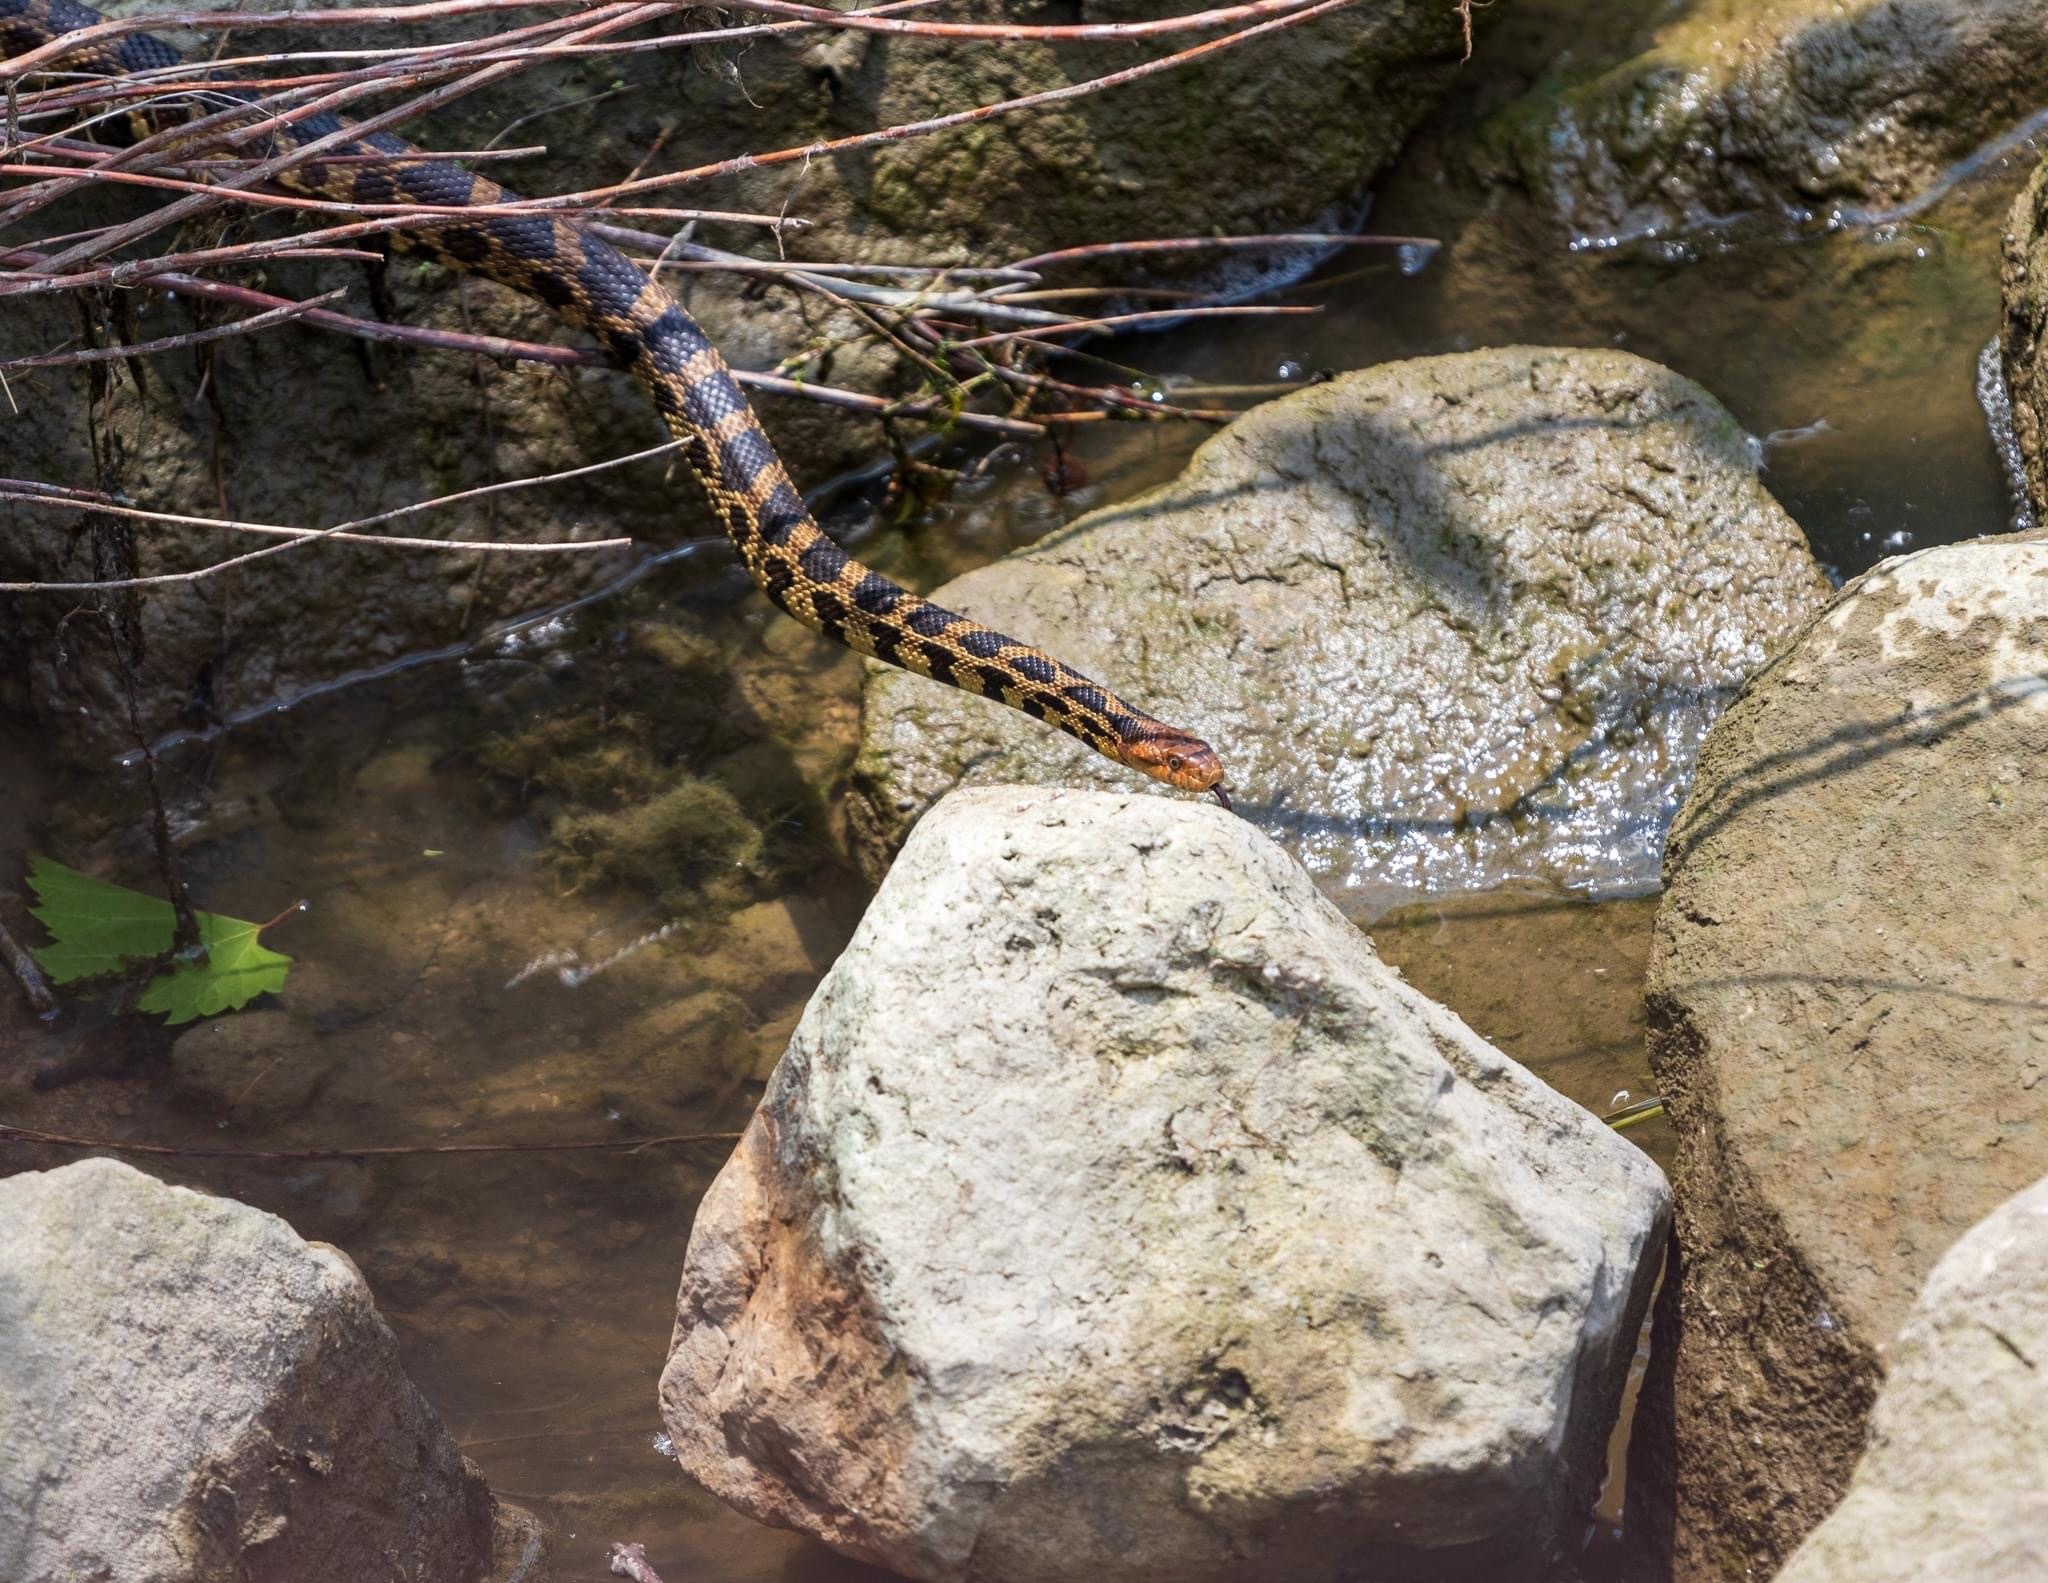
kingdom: Animalia
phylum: Chordata
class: Squamata
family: Colubridae
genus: Pantherophis
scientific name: Pantherophis vulpinus
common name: Eastern fox snake
